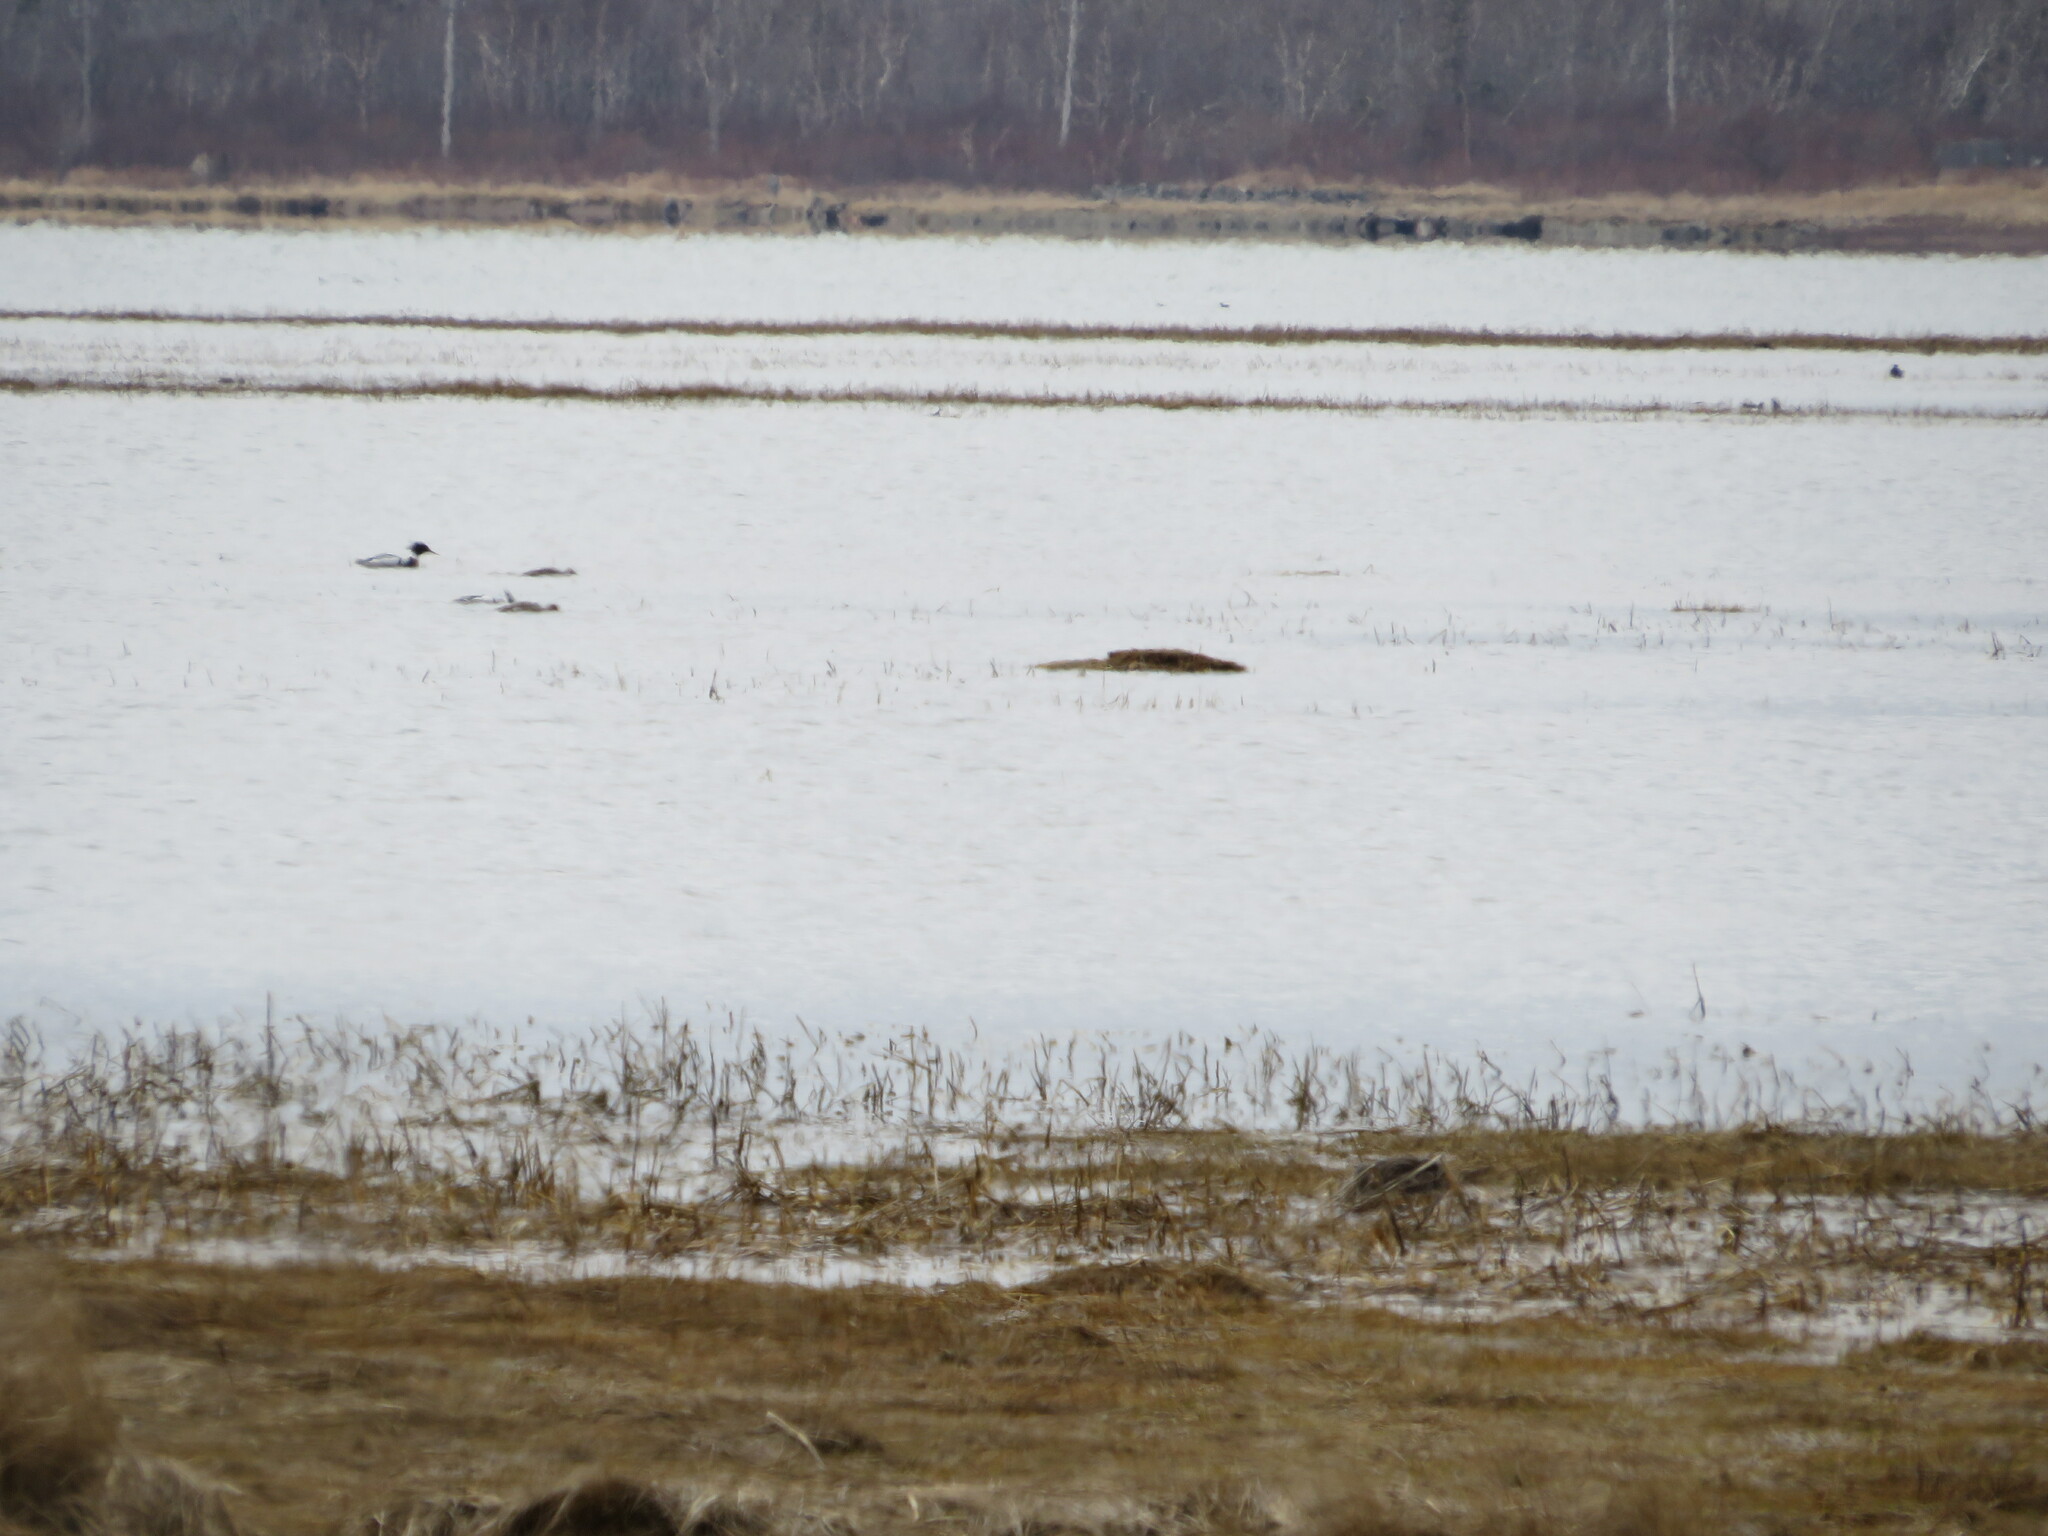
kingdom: Animalia
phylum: Chordata
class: Aves
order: Anseriformes
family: Anatidae
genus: Mergus
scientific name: Mergus serrator
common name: Red-breasted merganser
